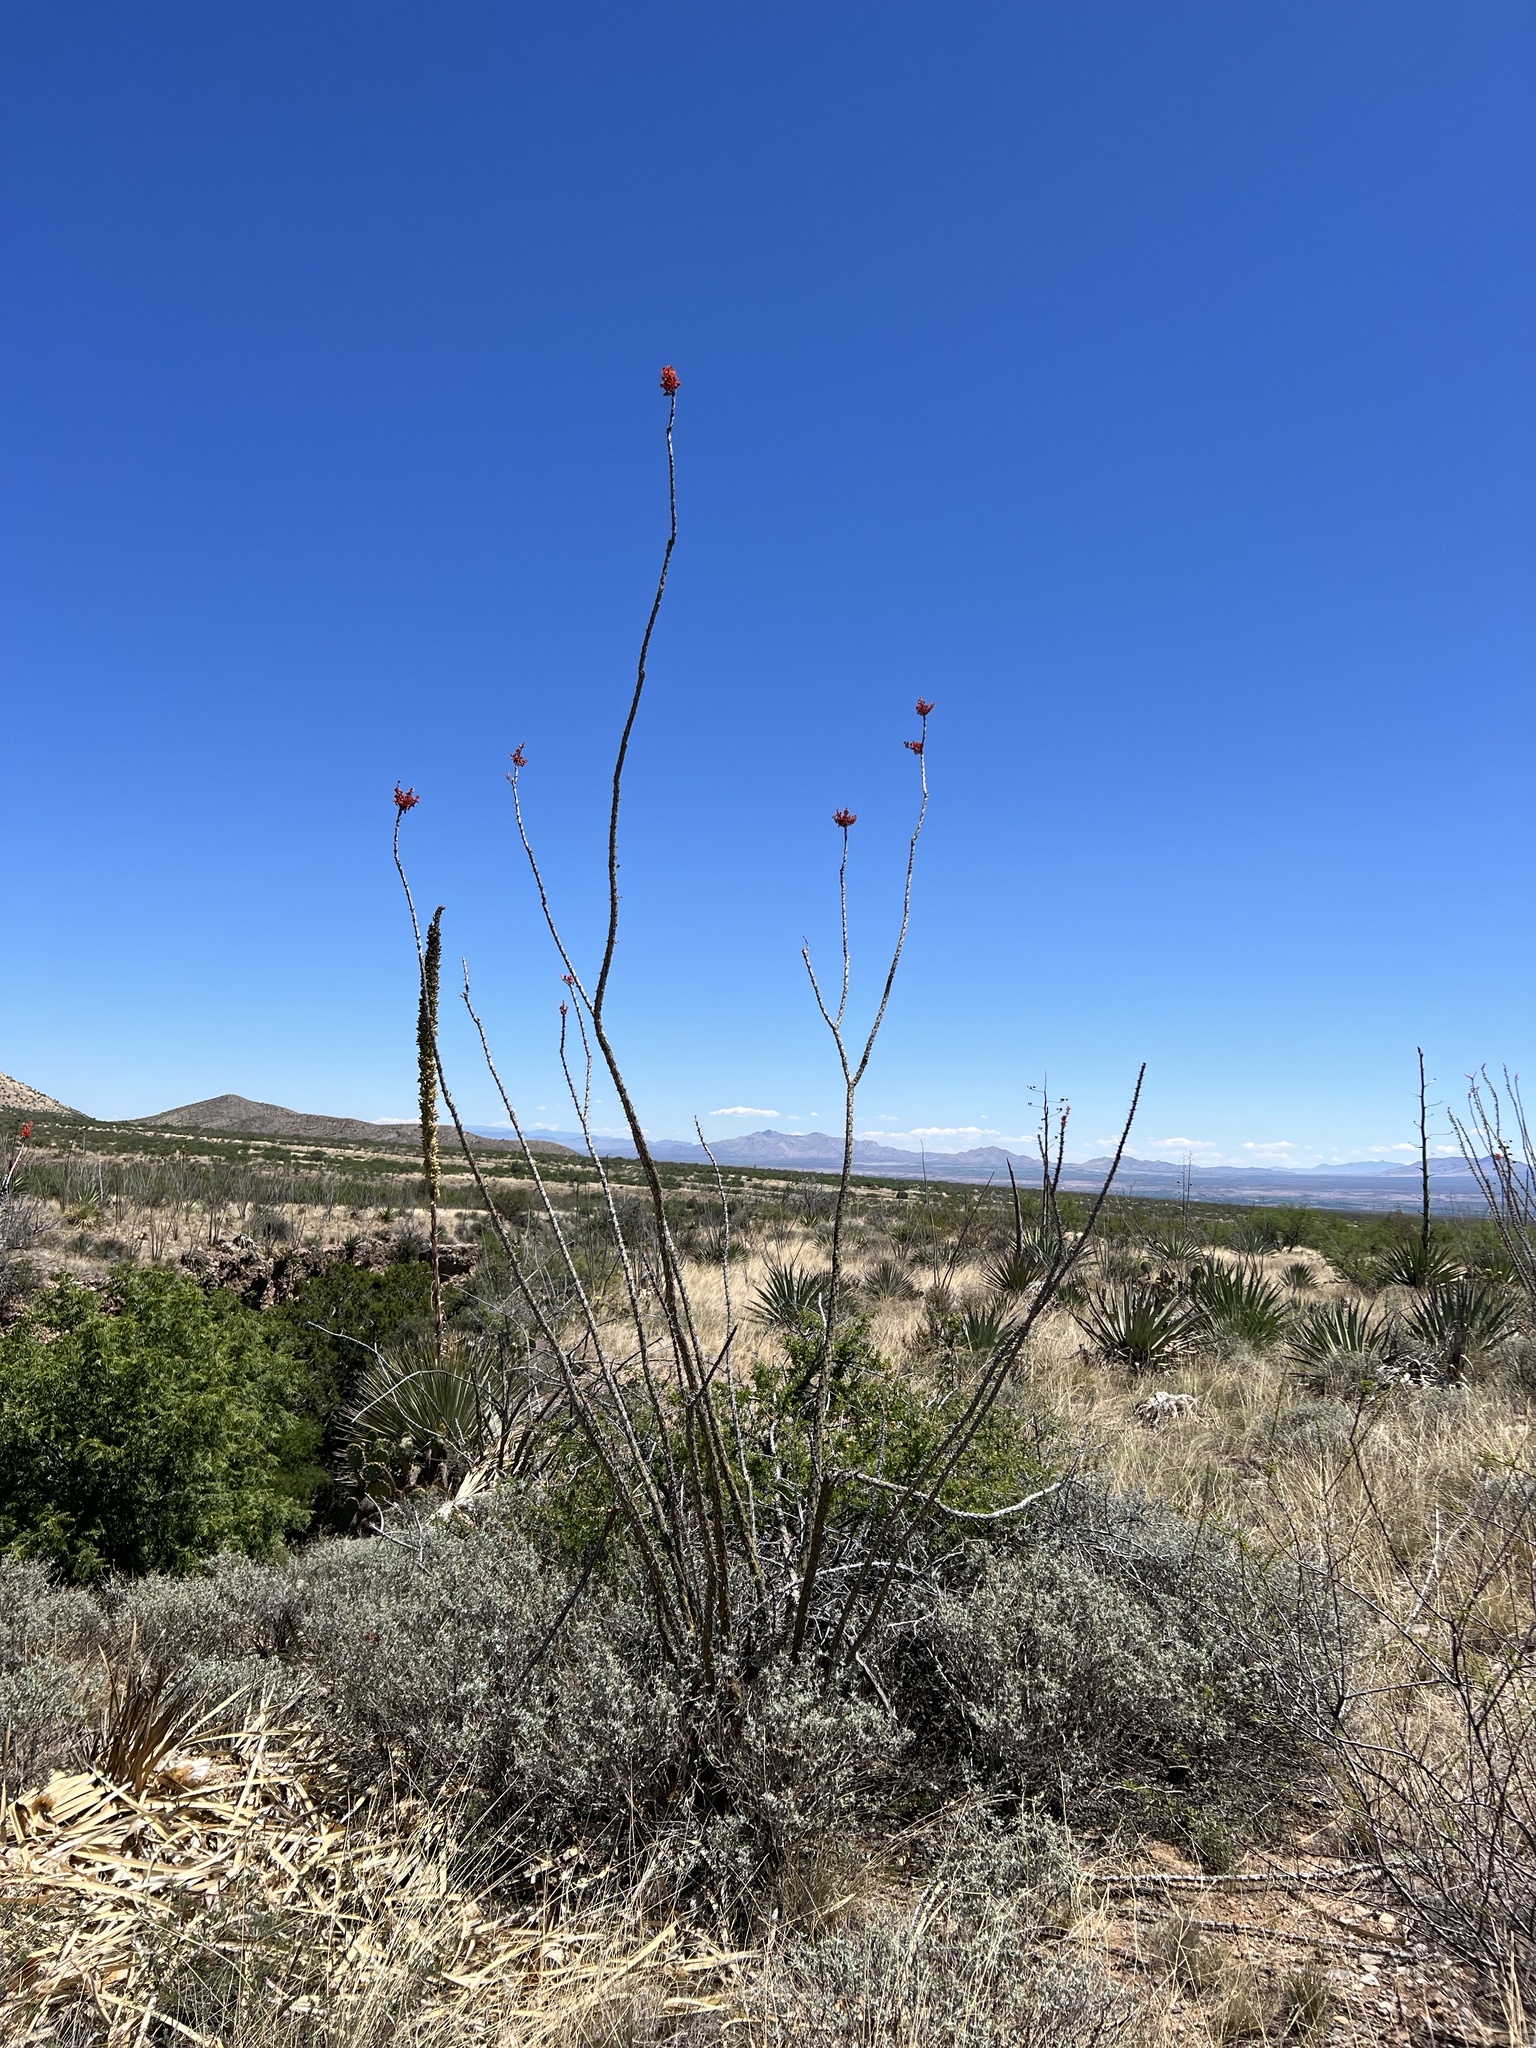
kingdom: Plantae
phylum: Tracheophyta
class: Magnoliopsida
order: Ericales
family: Fouquieriaceae
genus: Fouquieria
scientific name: Fouquieria splendens
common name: Vine-cactus
